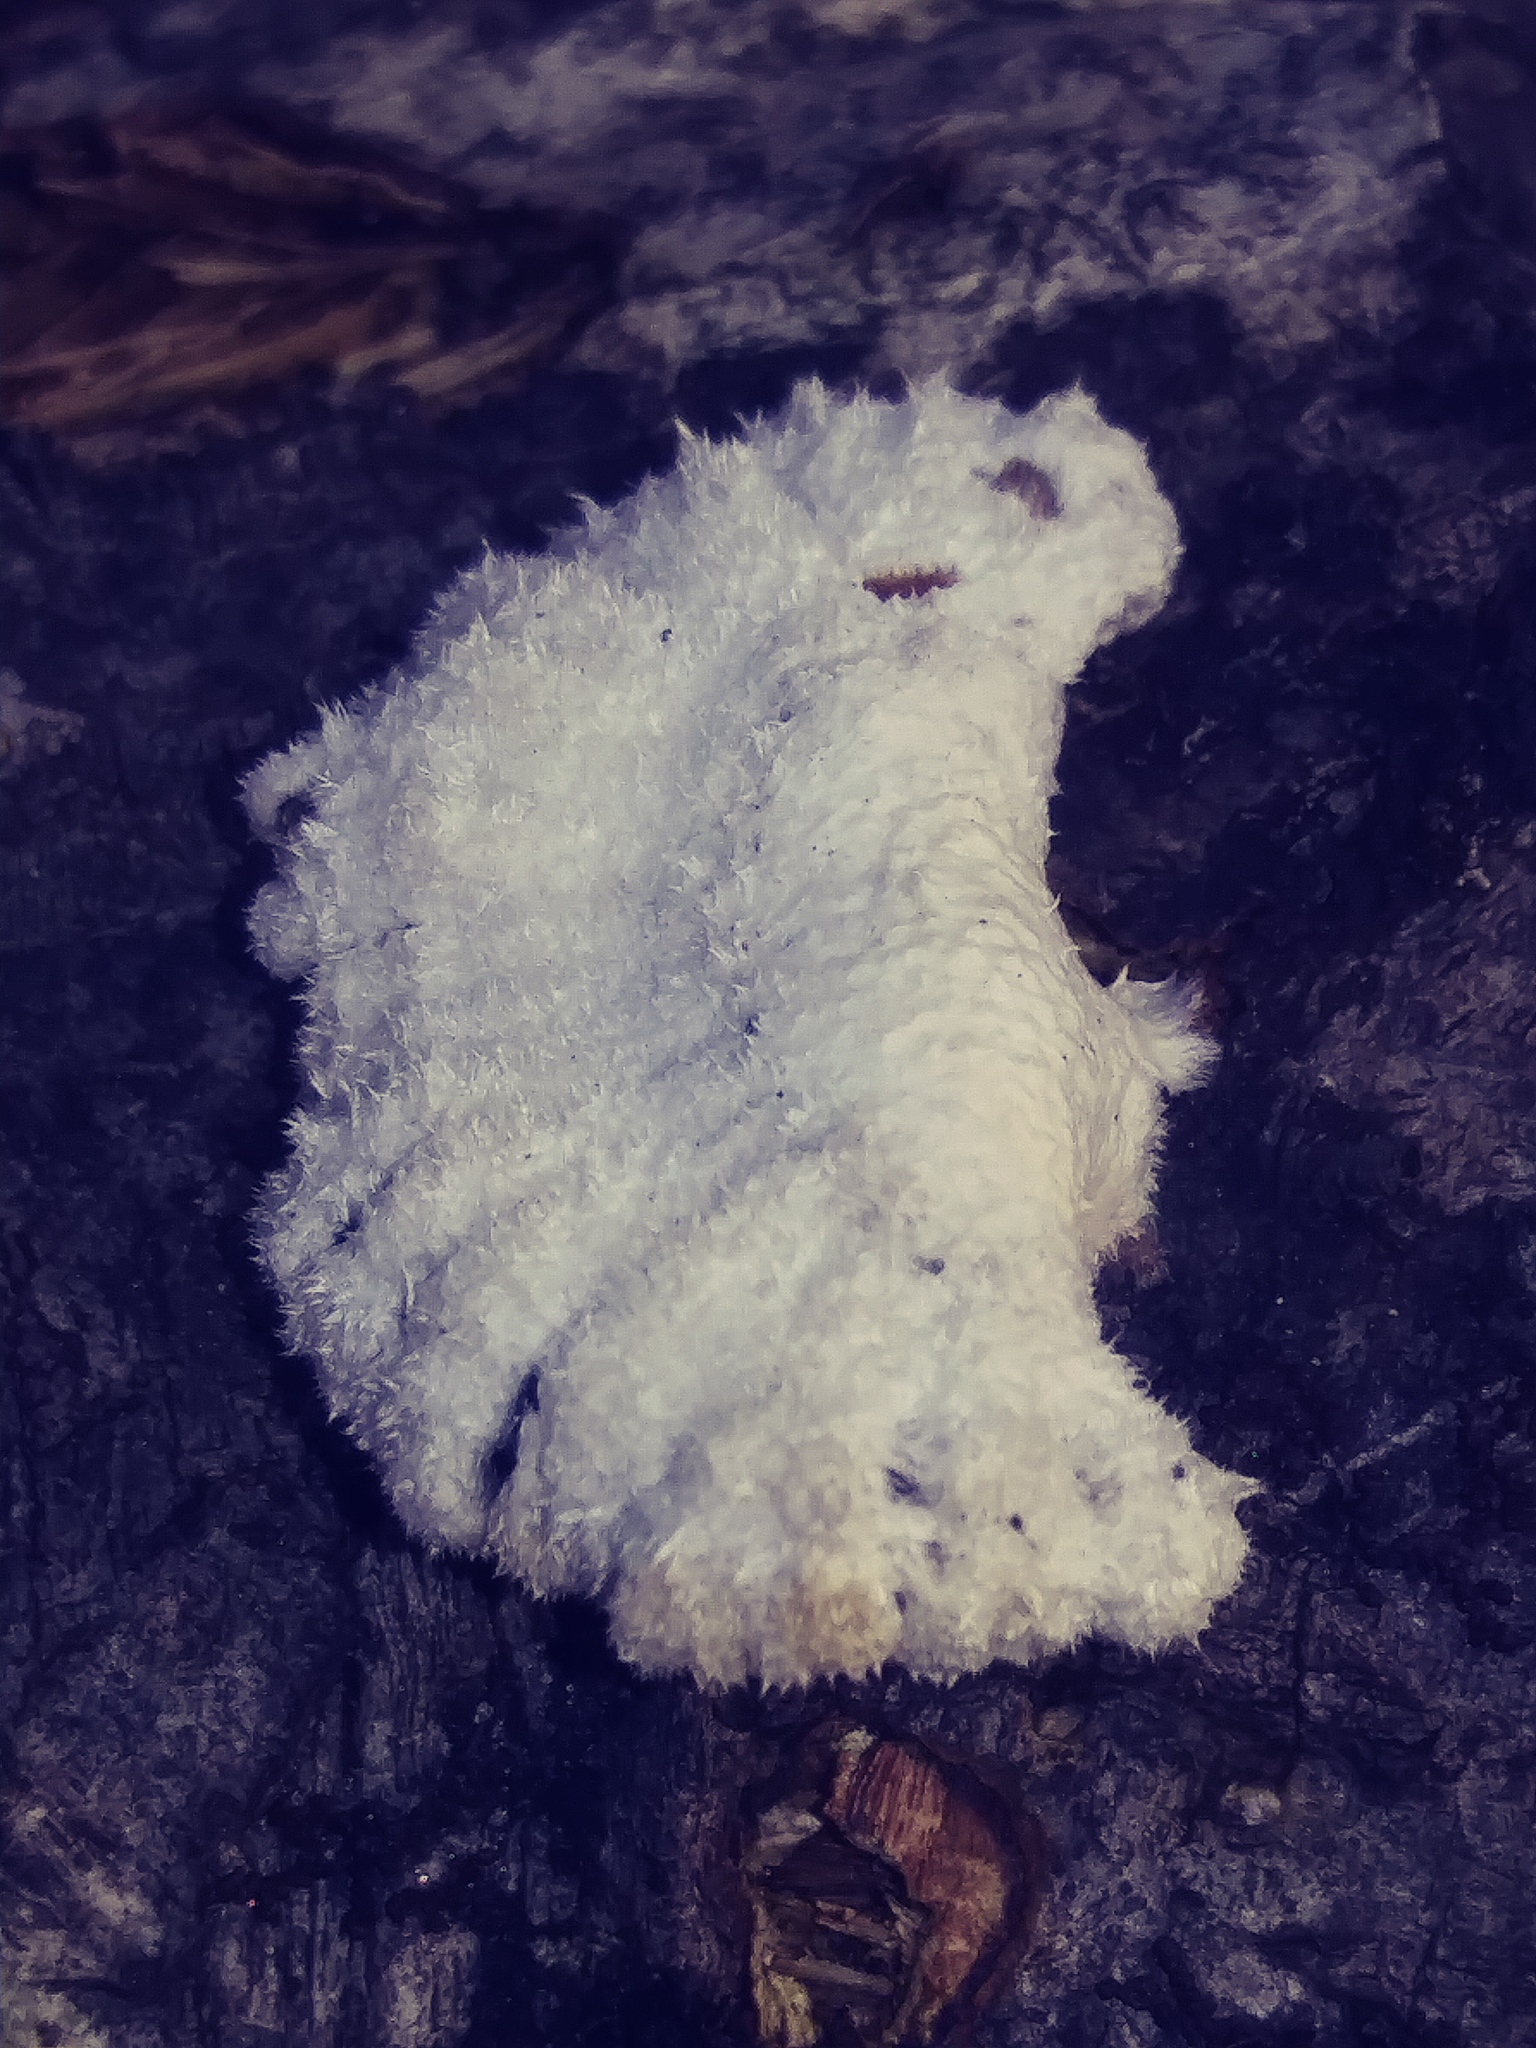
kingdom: Fungi
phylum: Basidiomycota
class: Agaricomycetes
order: Agaricales
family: Schizophyllaceae
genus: Schizophyllum
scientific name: Schizophyllum commune
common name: Common porecrust
